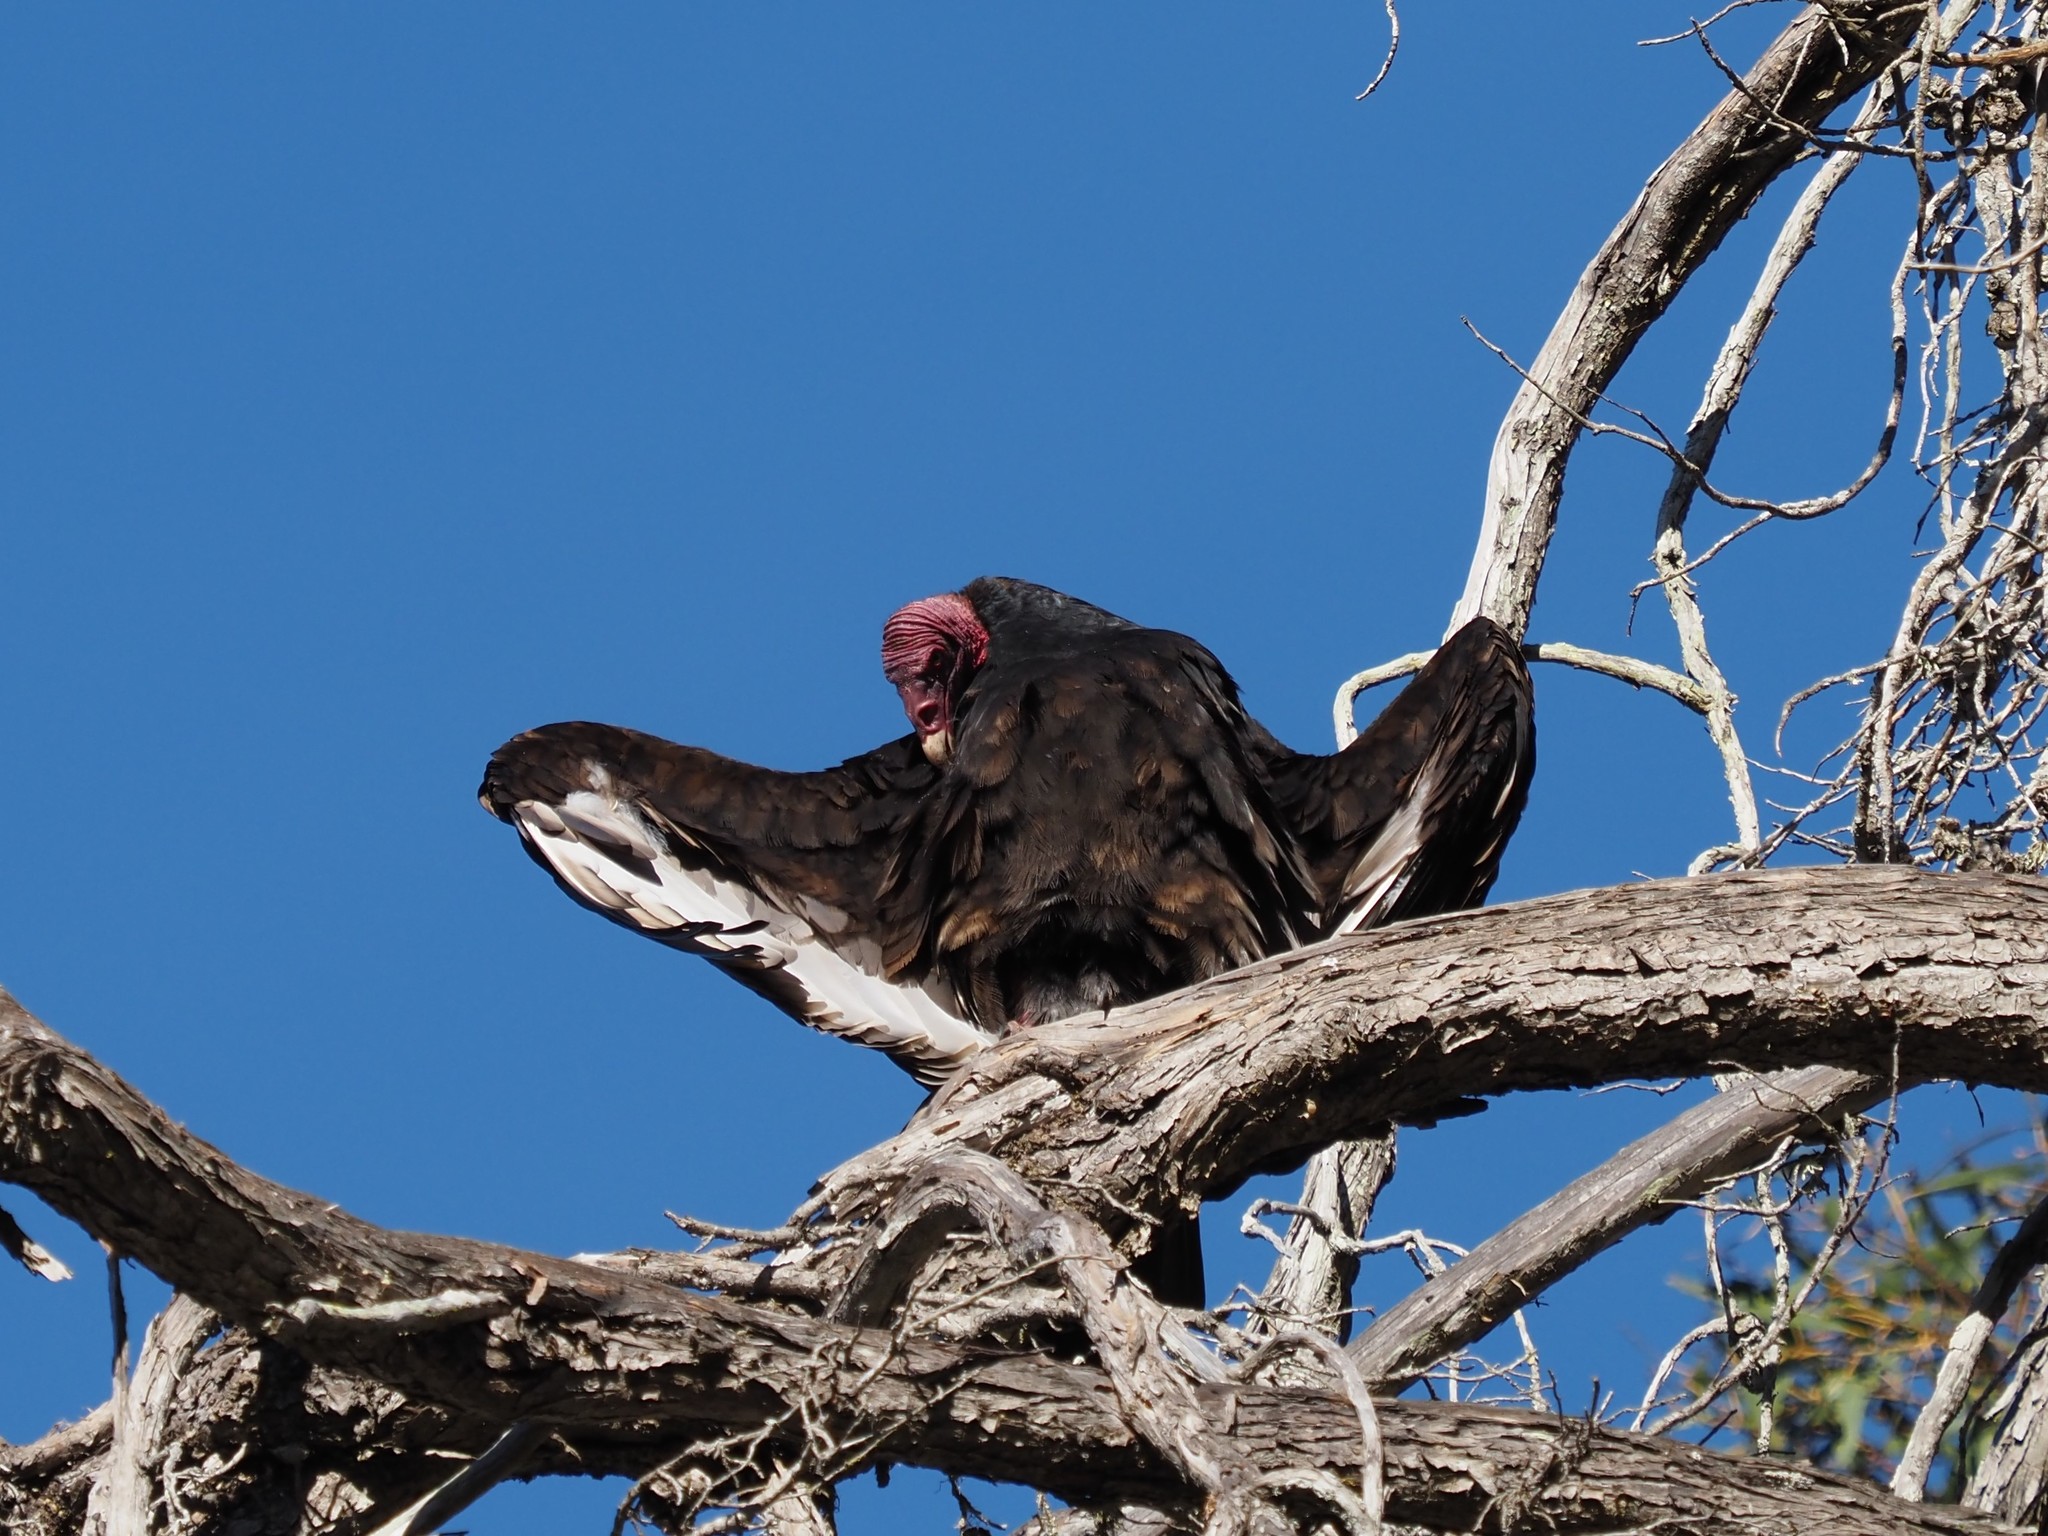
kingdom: Animalia
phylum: Chordata
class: Aves
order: Accipitriformes
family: Cathartidae
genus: Cathartes
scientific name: Cathartes aura
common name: Turkey vulture
